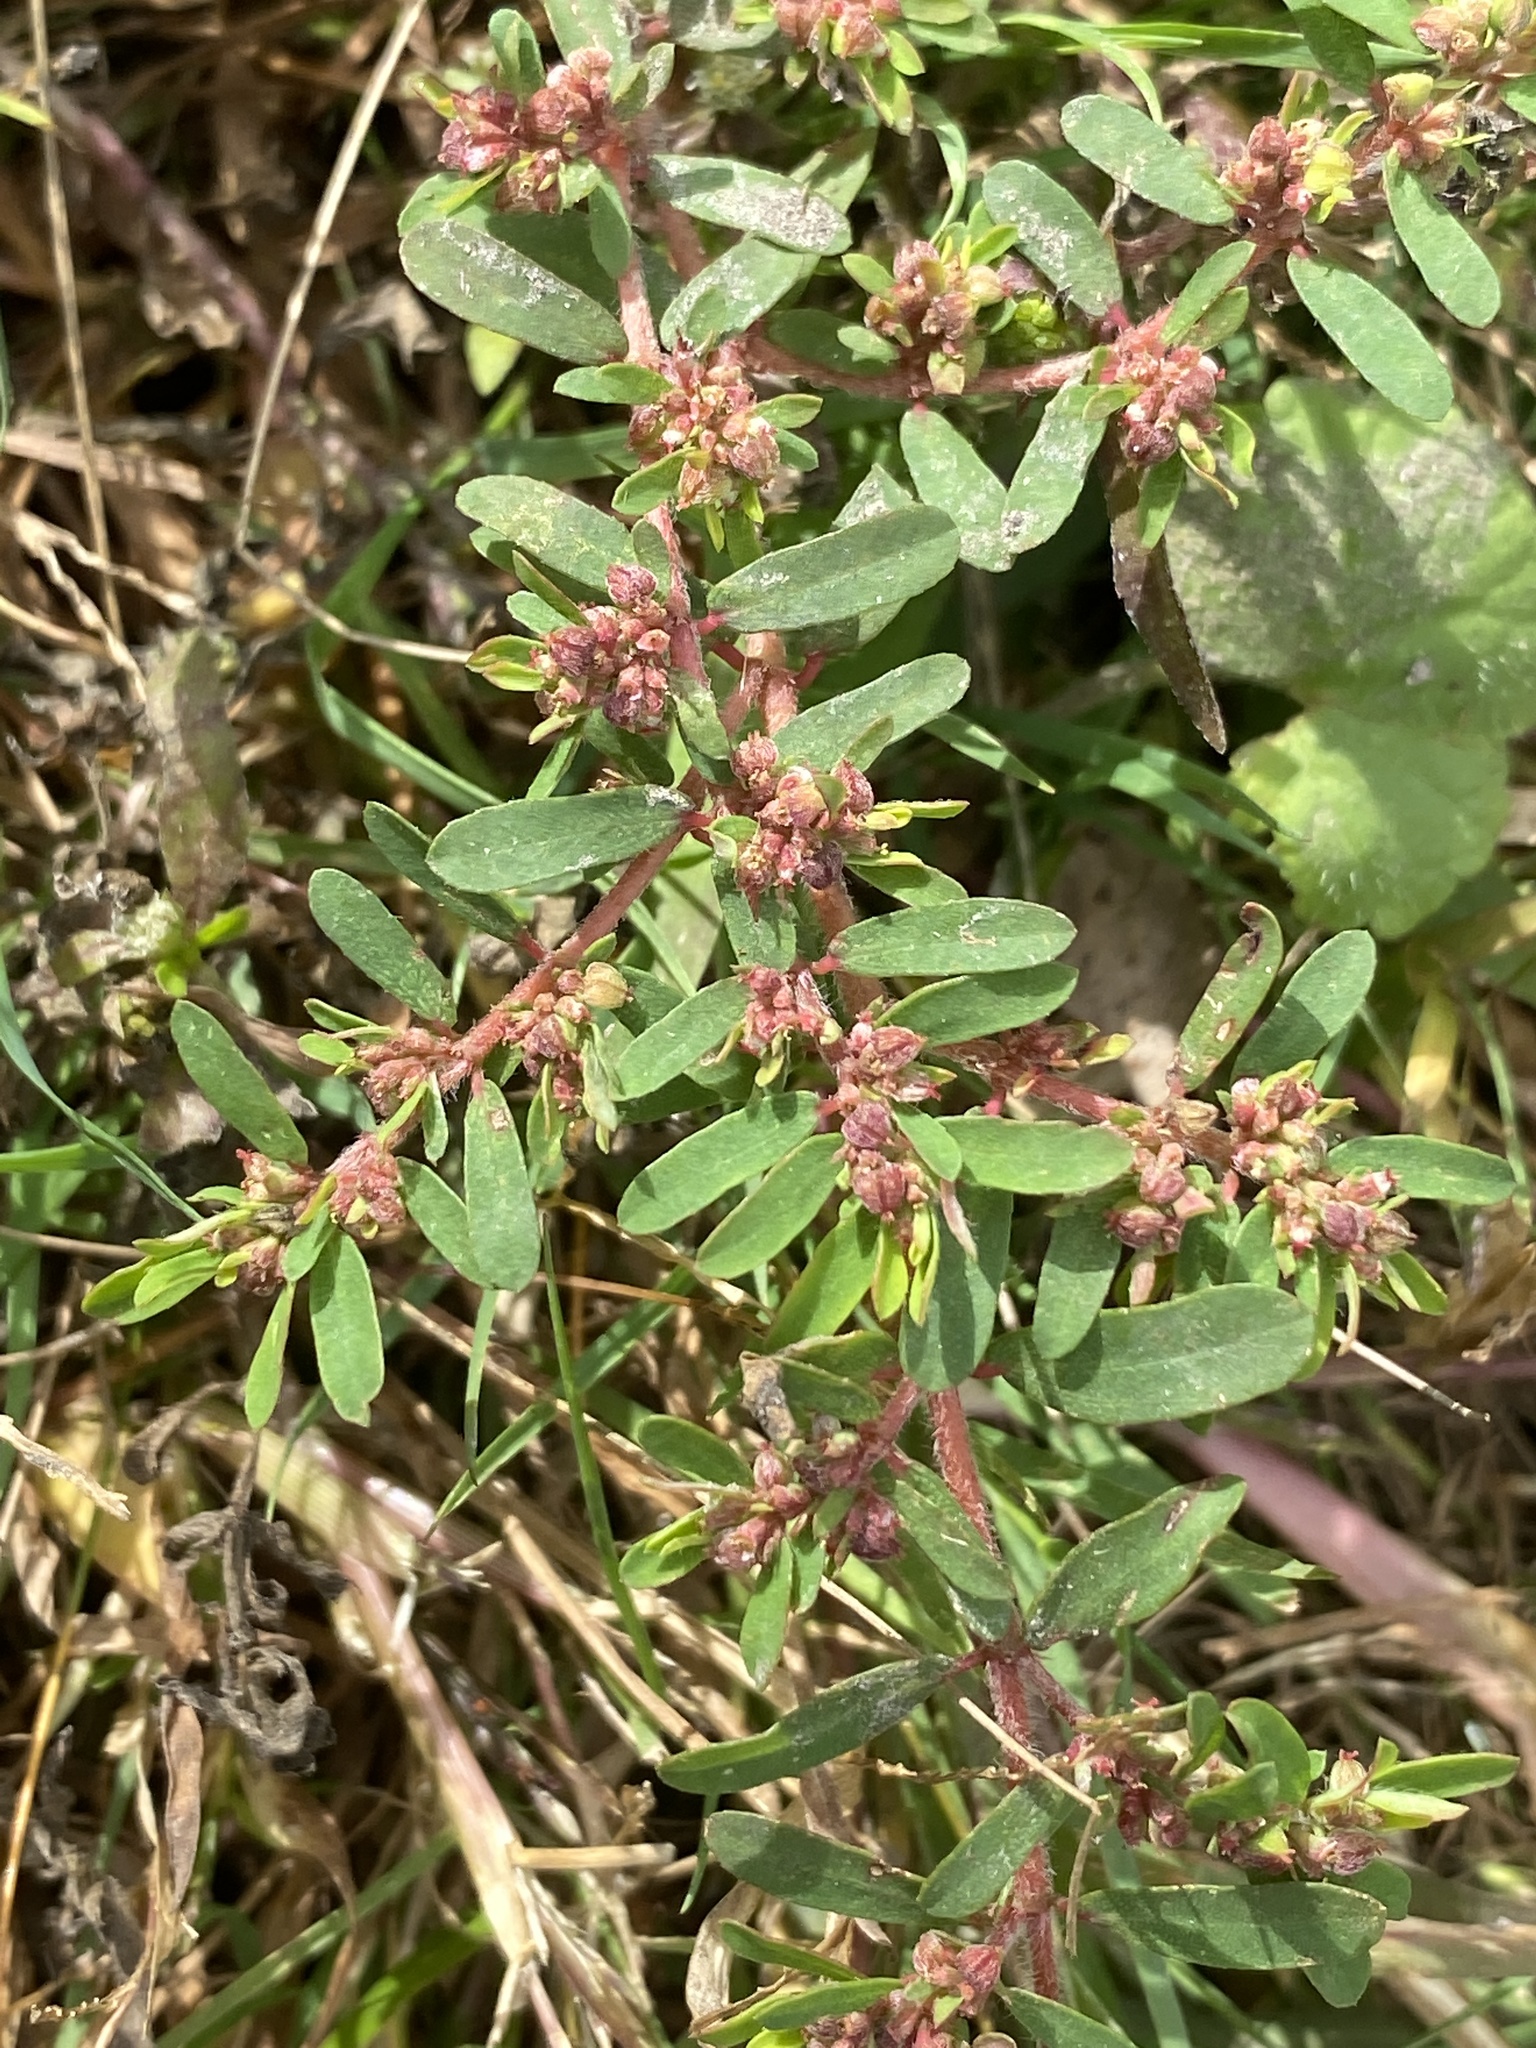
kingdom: Plantae
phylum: Tracheophyta
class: Magnoliopsida
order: Malpighiales
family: Euphorbiaceae
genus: Euphorbia
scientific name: Euphorbia maculata
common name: Spotted spurge
